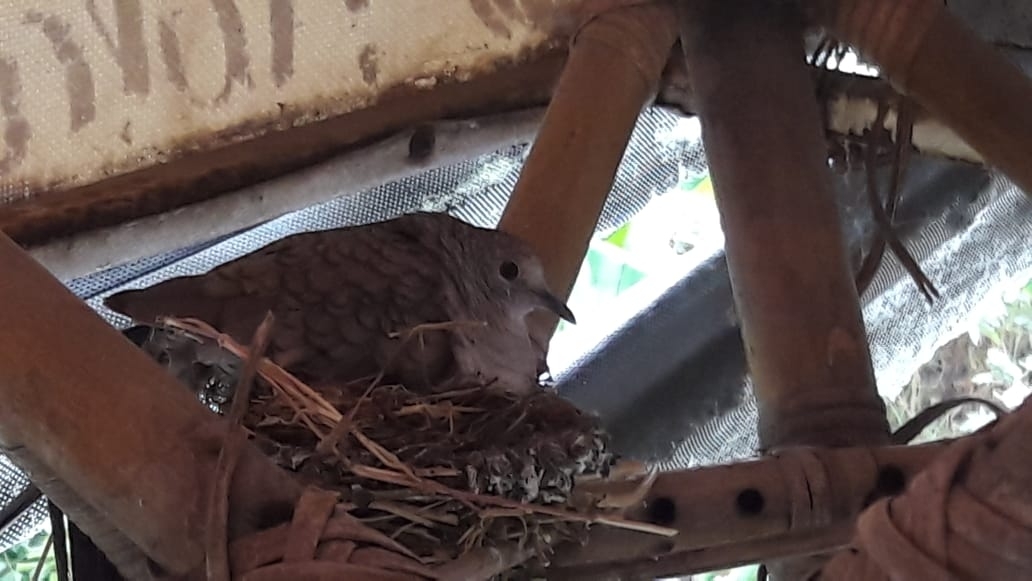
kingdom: Animalia
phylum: Chordata
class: Aves
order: Columbiformes
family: Columbidae
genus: Columbina
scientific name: Columbina inca
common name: Inca dove
